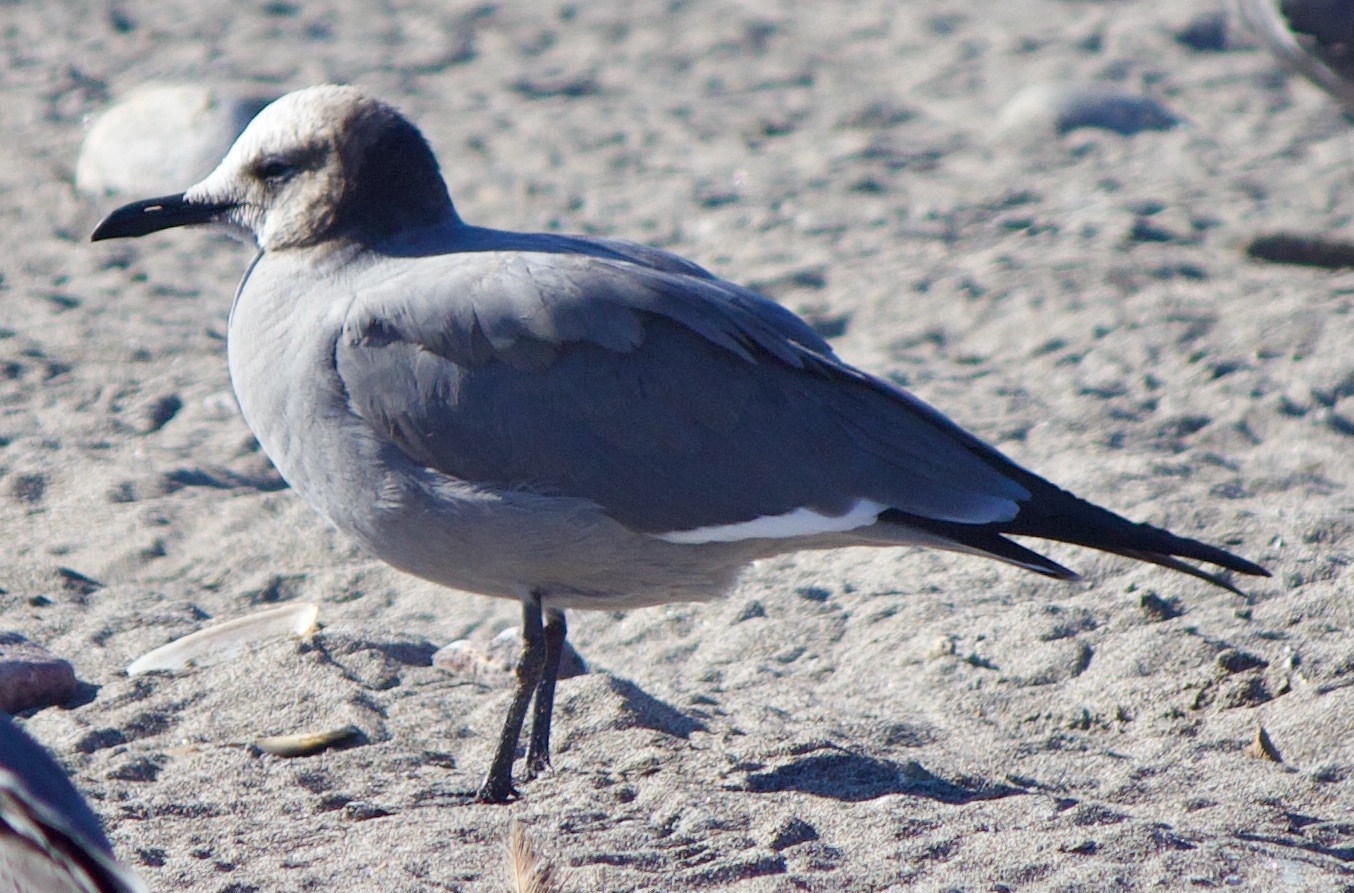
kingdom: Animalia
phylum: Chordata
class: Aves
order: Charadriiformes
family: Laridae
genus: Leucophaeus
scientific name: Leucophaeus modestus
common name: Gray gull
